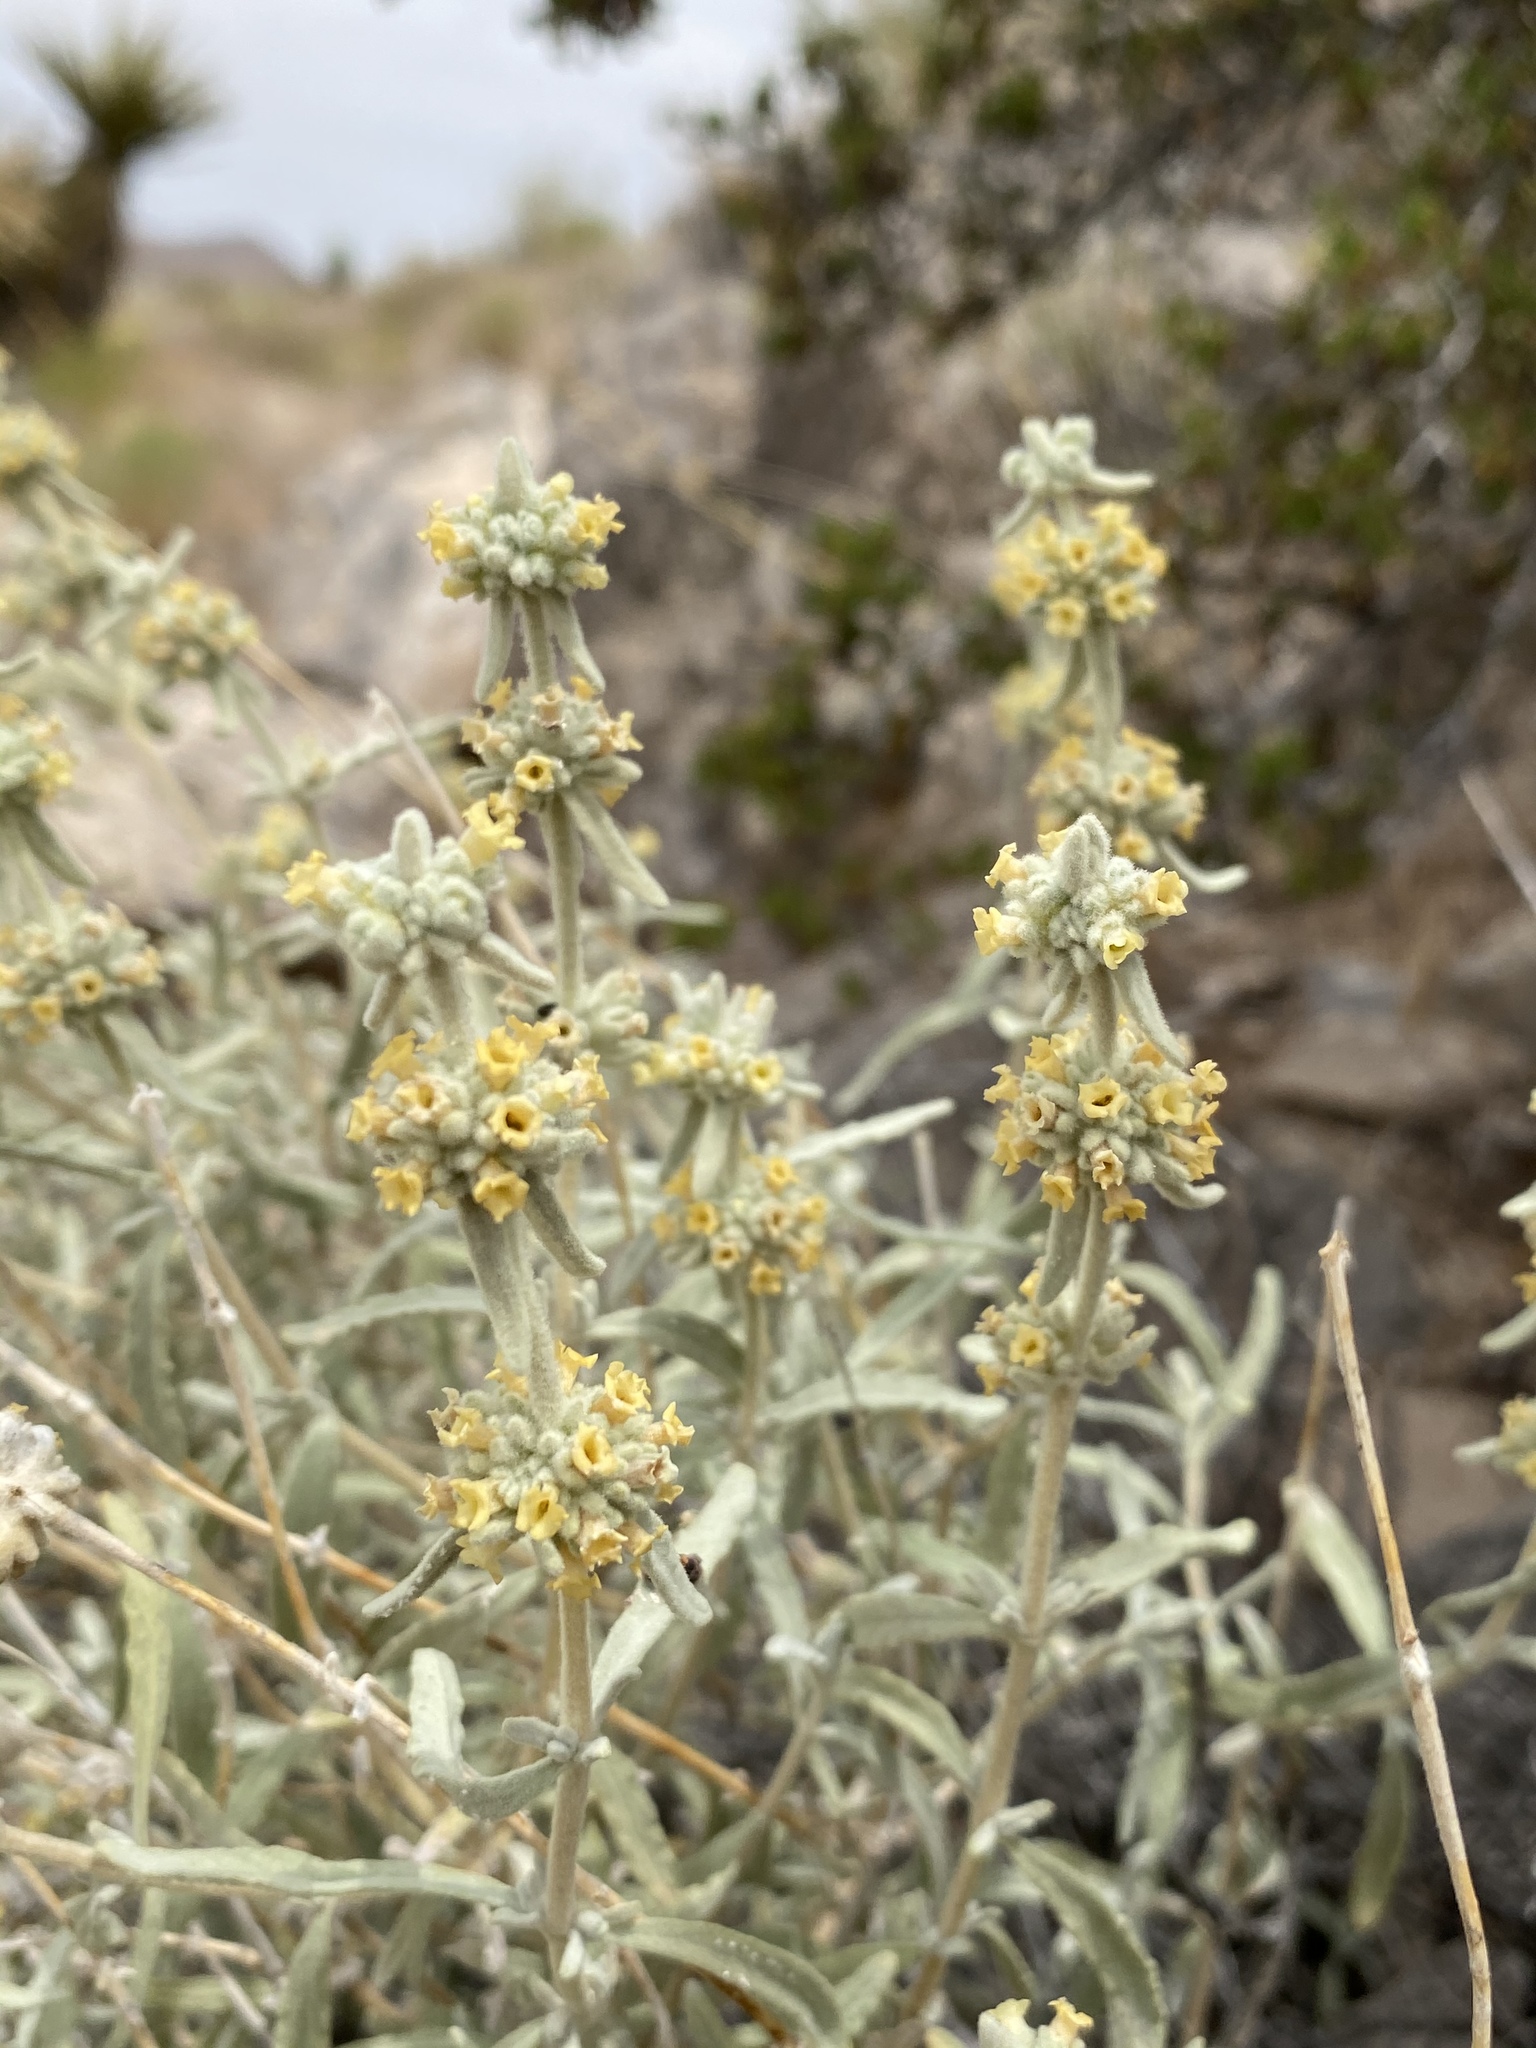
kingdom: Plantae
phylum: Tracheophyta
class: Magnoliopsida
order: Lamiales
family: Scrophulariaceae
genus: Buddleja
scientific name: Buddleja utahensis
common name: Utah butterfly-bush
